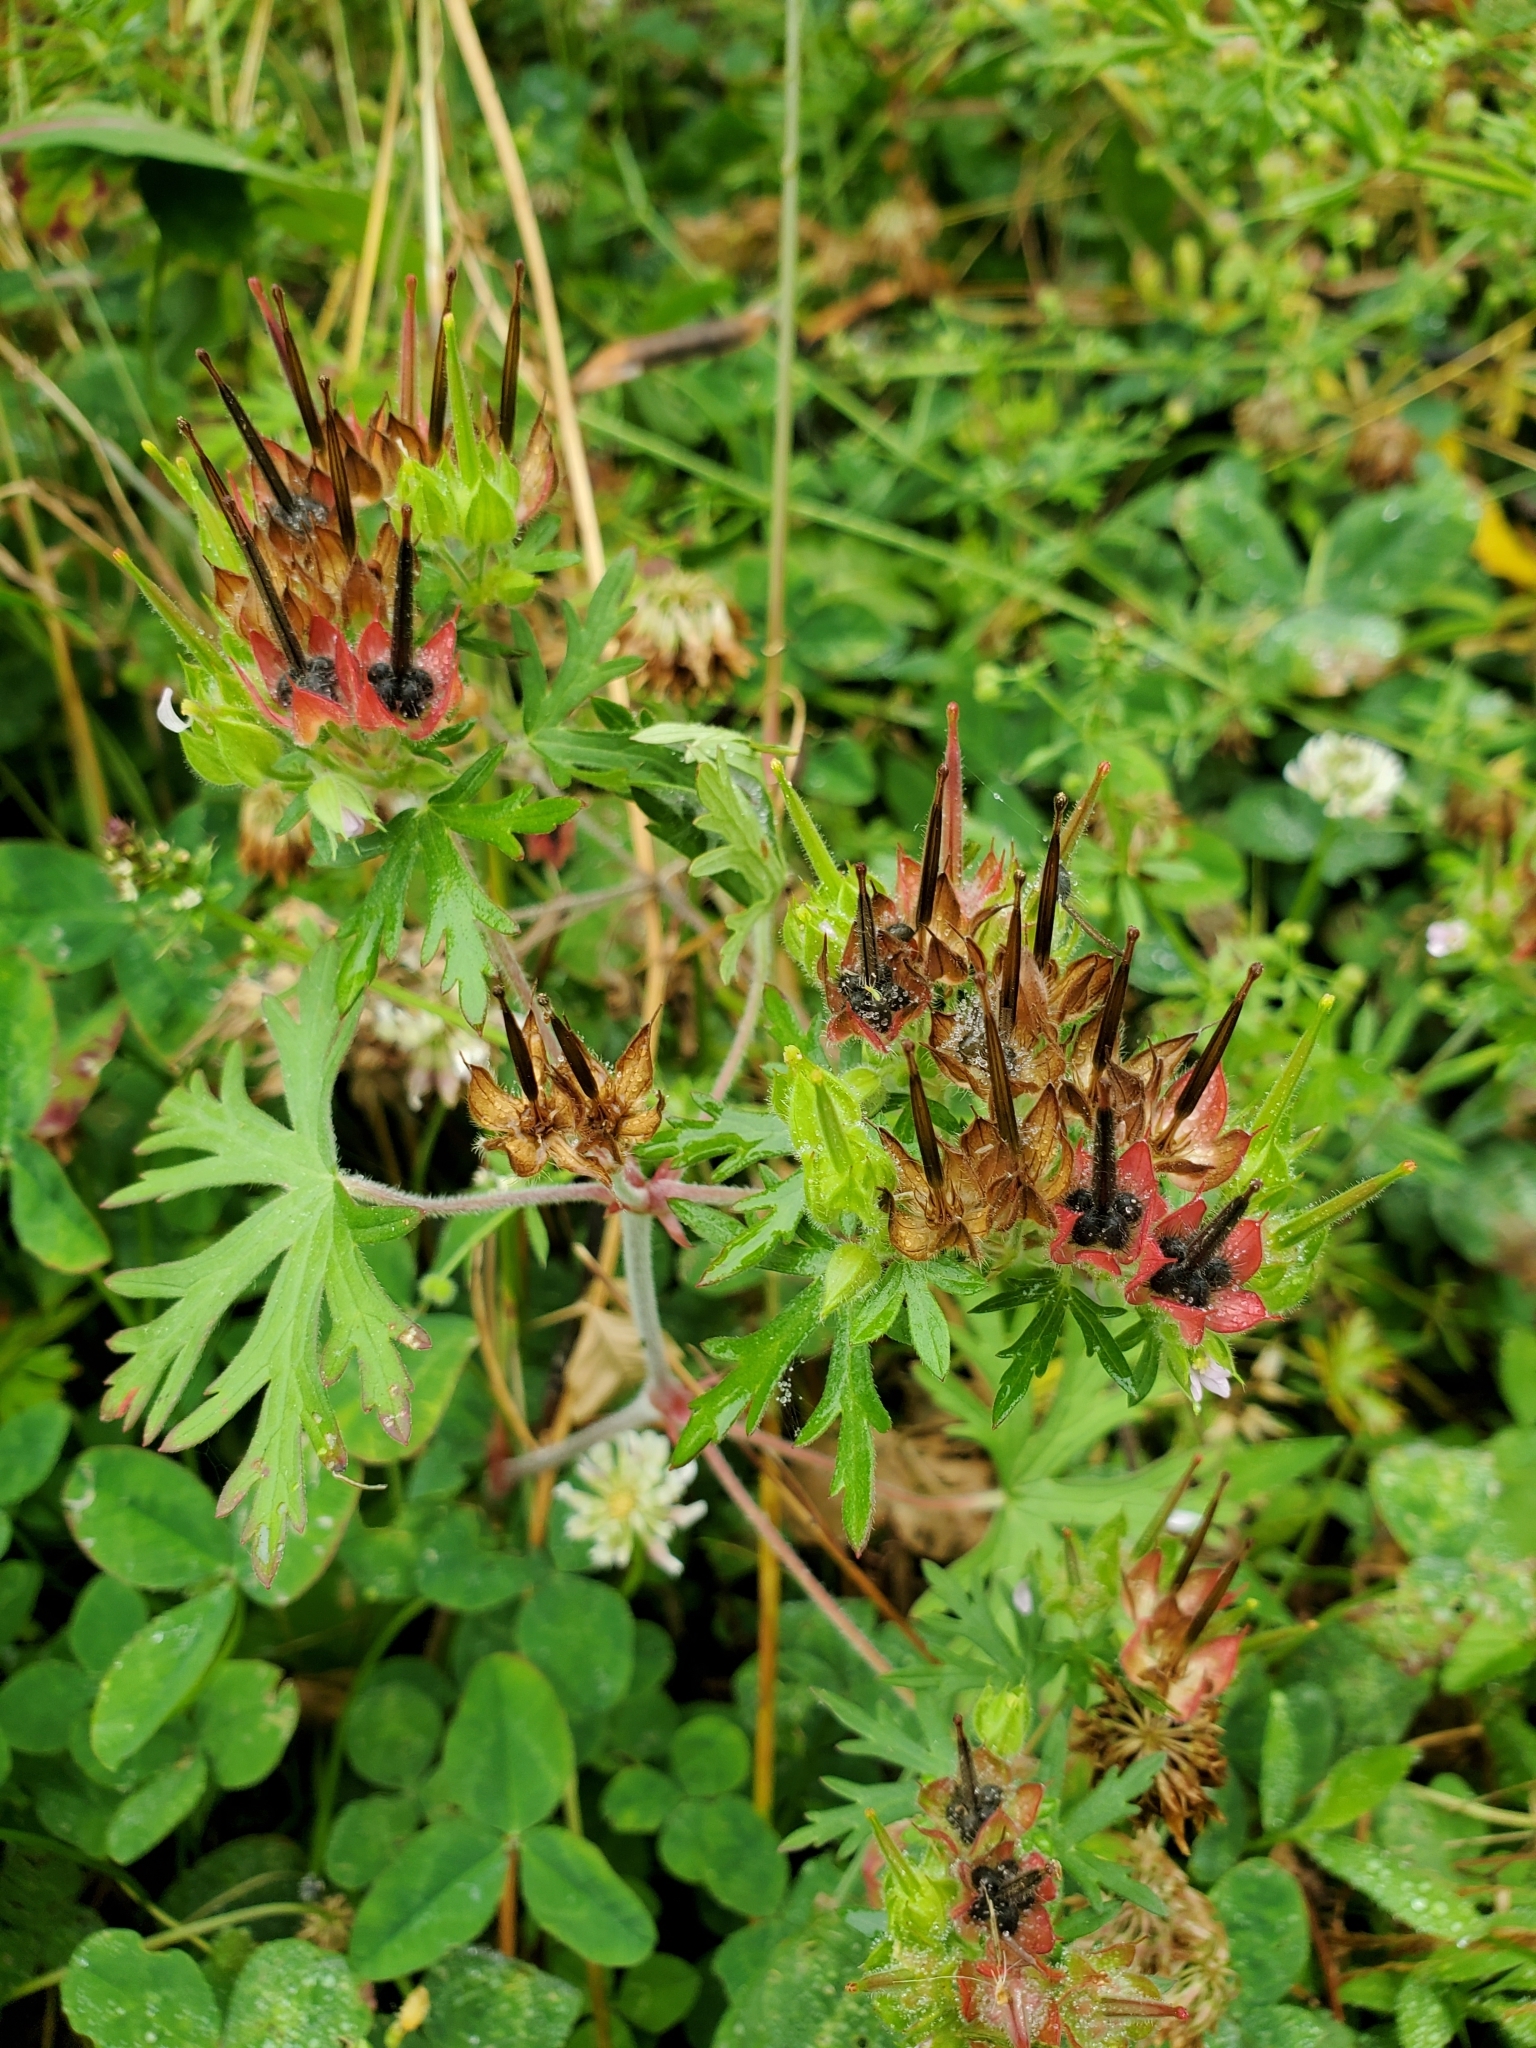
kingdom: Plantae
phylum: Tracheophyta
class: Magnoliopsida
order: Geraniales
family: Geraniaceae
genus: Geranium
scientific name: Geranium carolinianum
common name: Carolina crane's-bill
